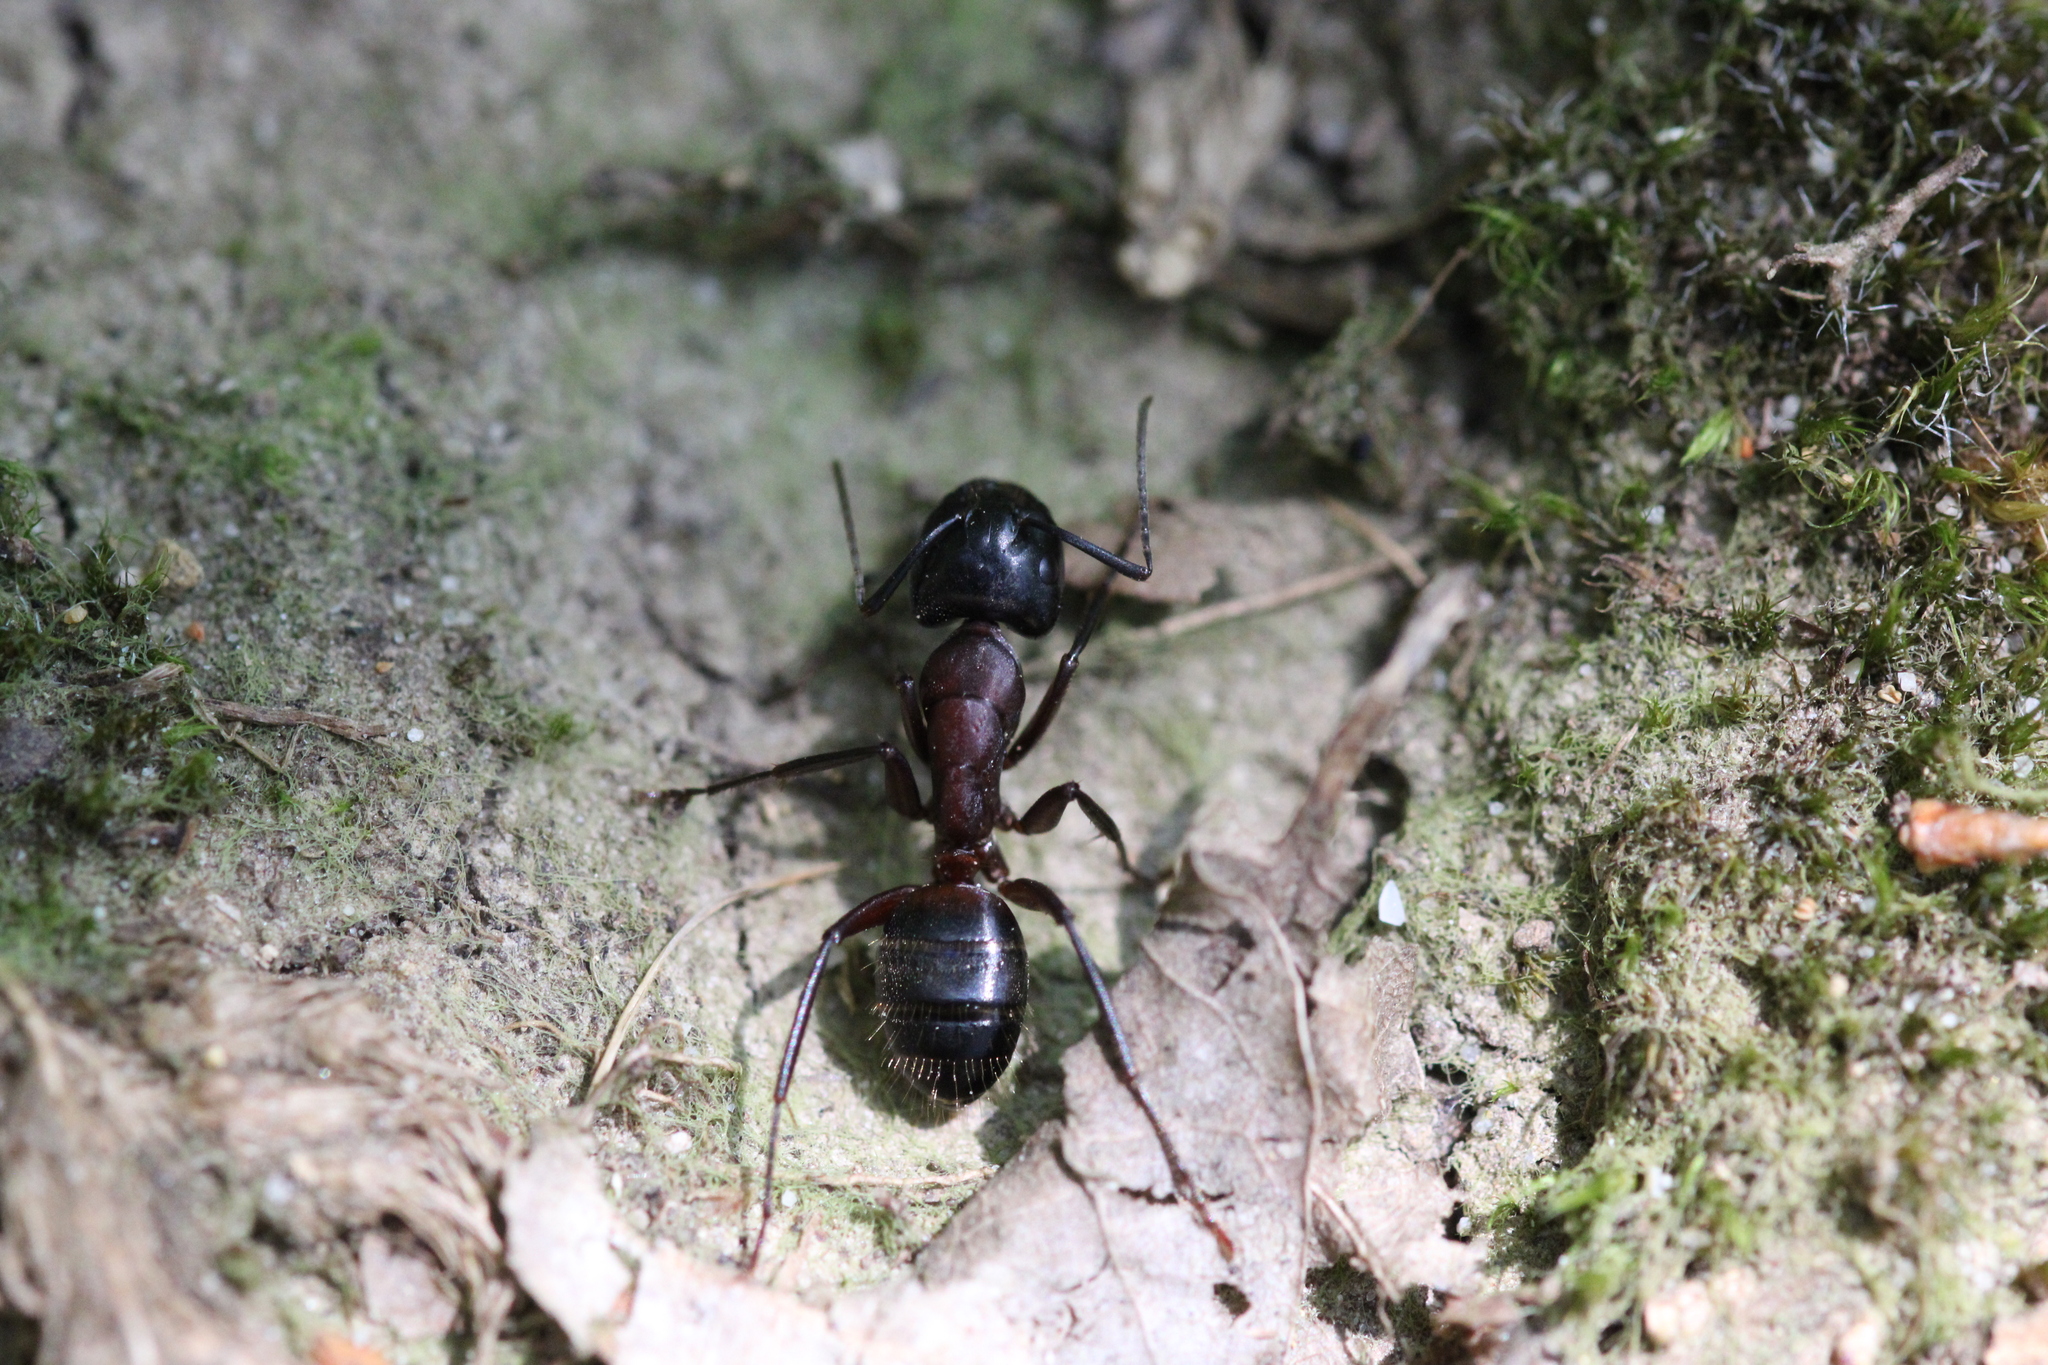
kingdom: Animalia
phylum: Arthropoda
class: Insecta
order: Hymenoptera
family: Formicidae
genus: Camponotus
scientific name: Camponotus ligniperdus
